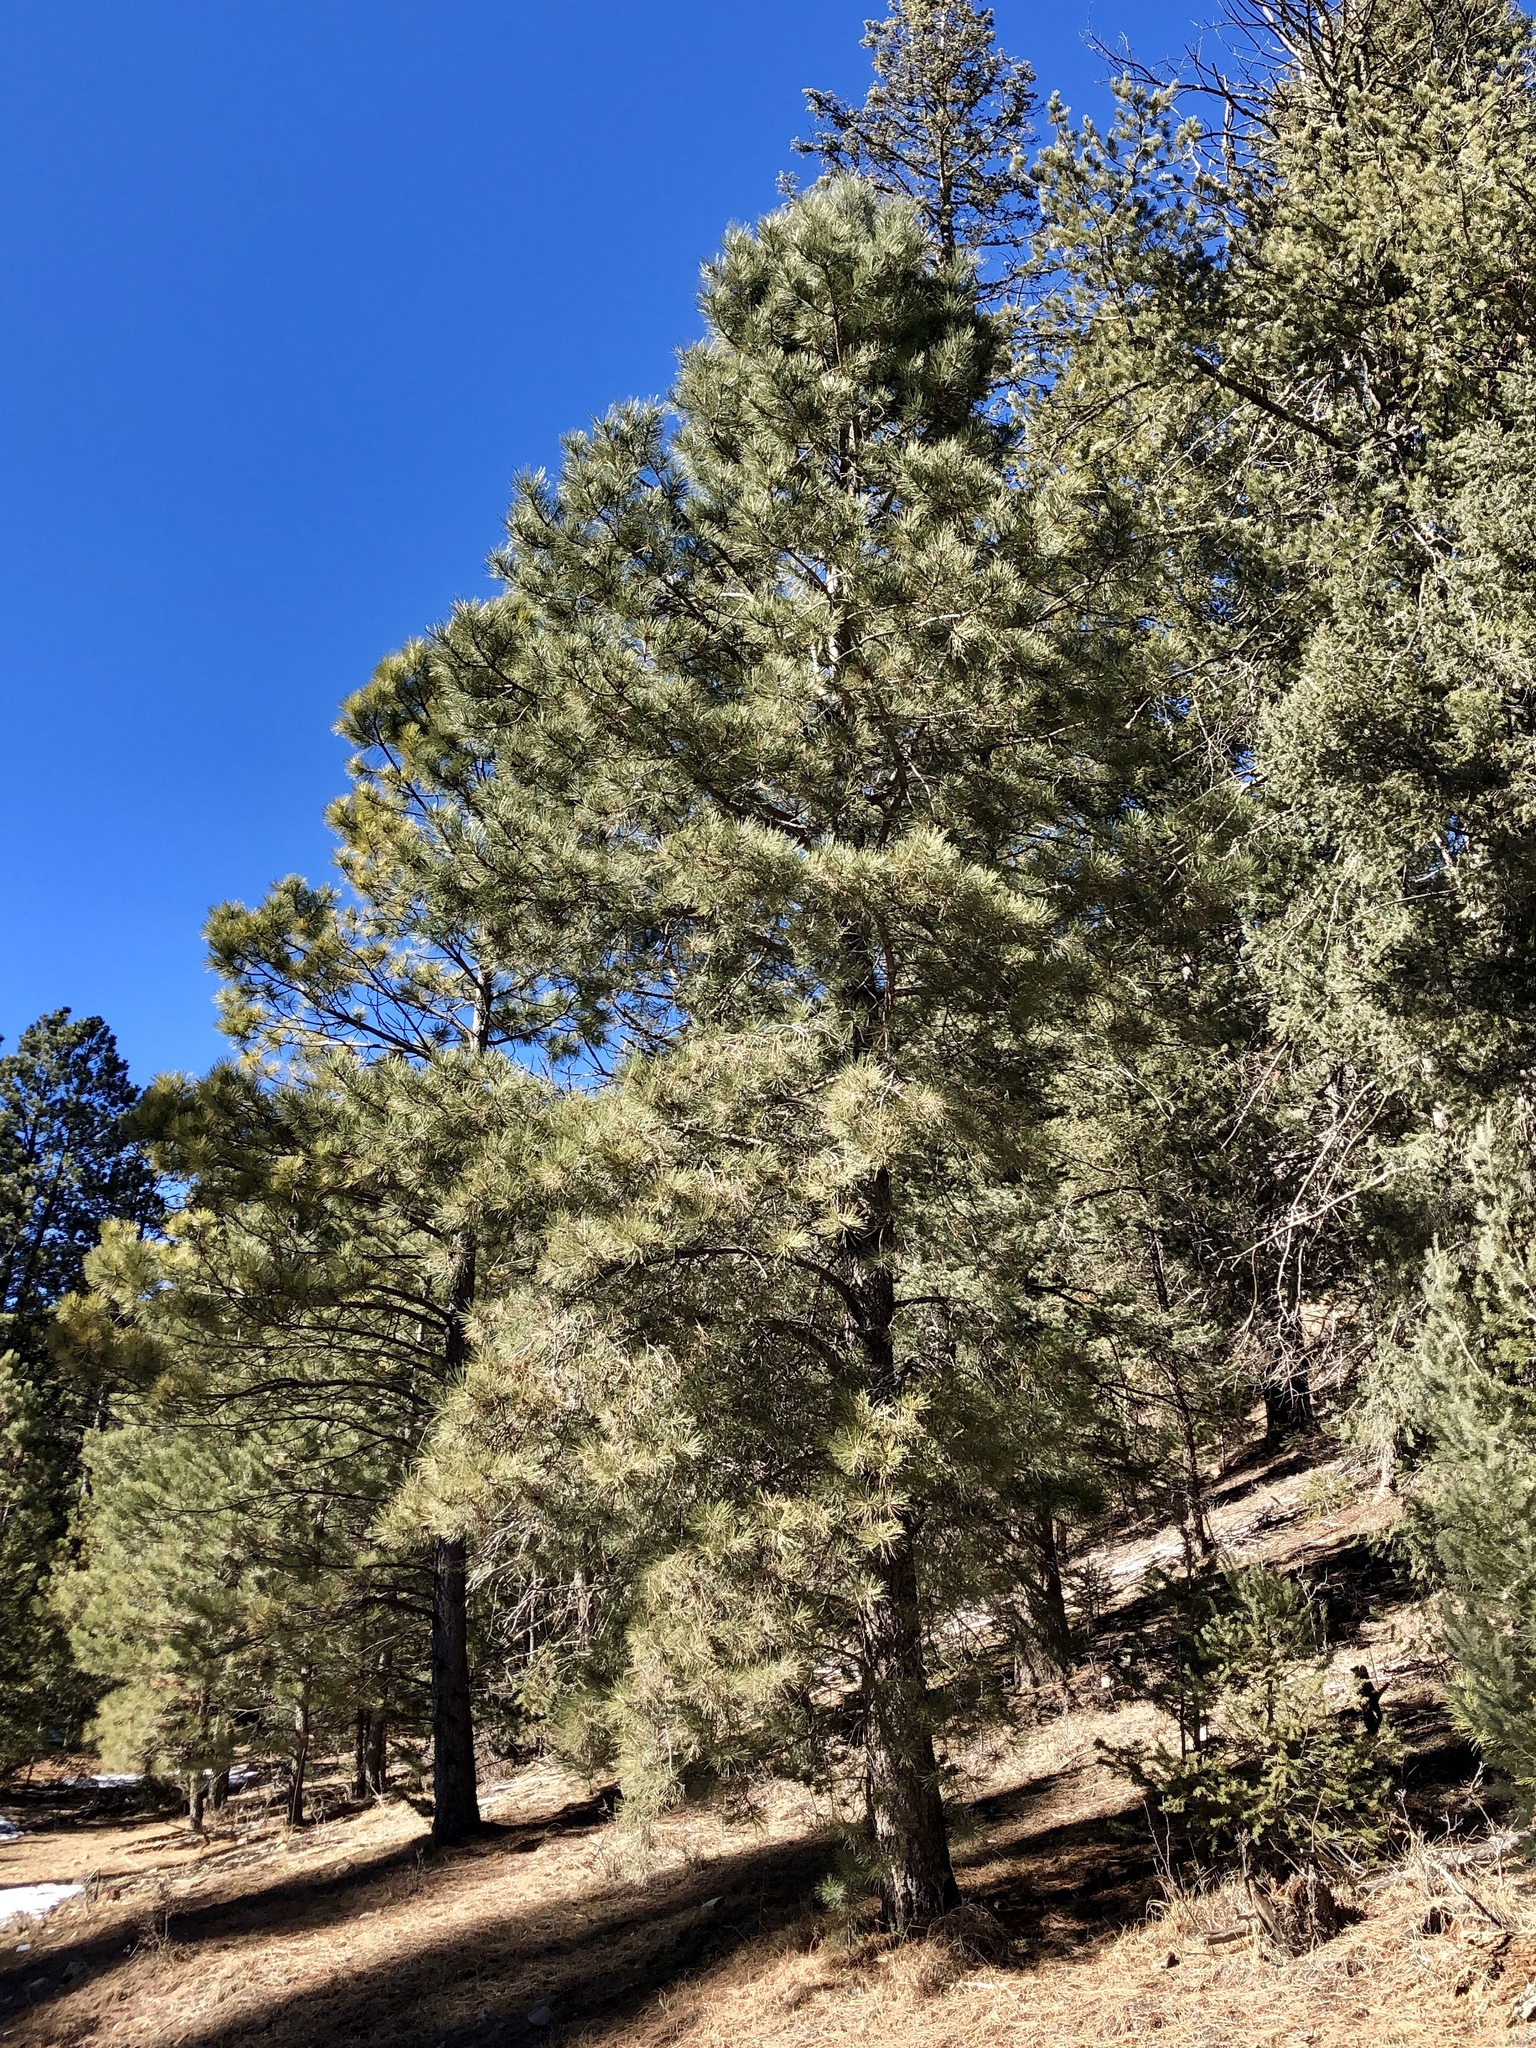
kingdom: Plantae
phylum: Tracheophyta
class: Pinopsida
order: Pinales
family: Pinaceae
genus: Pinus
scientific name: Pinus ponderosa
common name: Western yellow-pine
